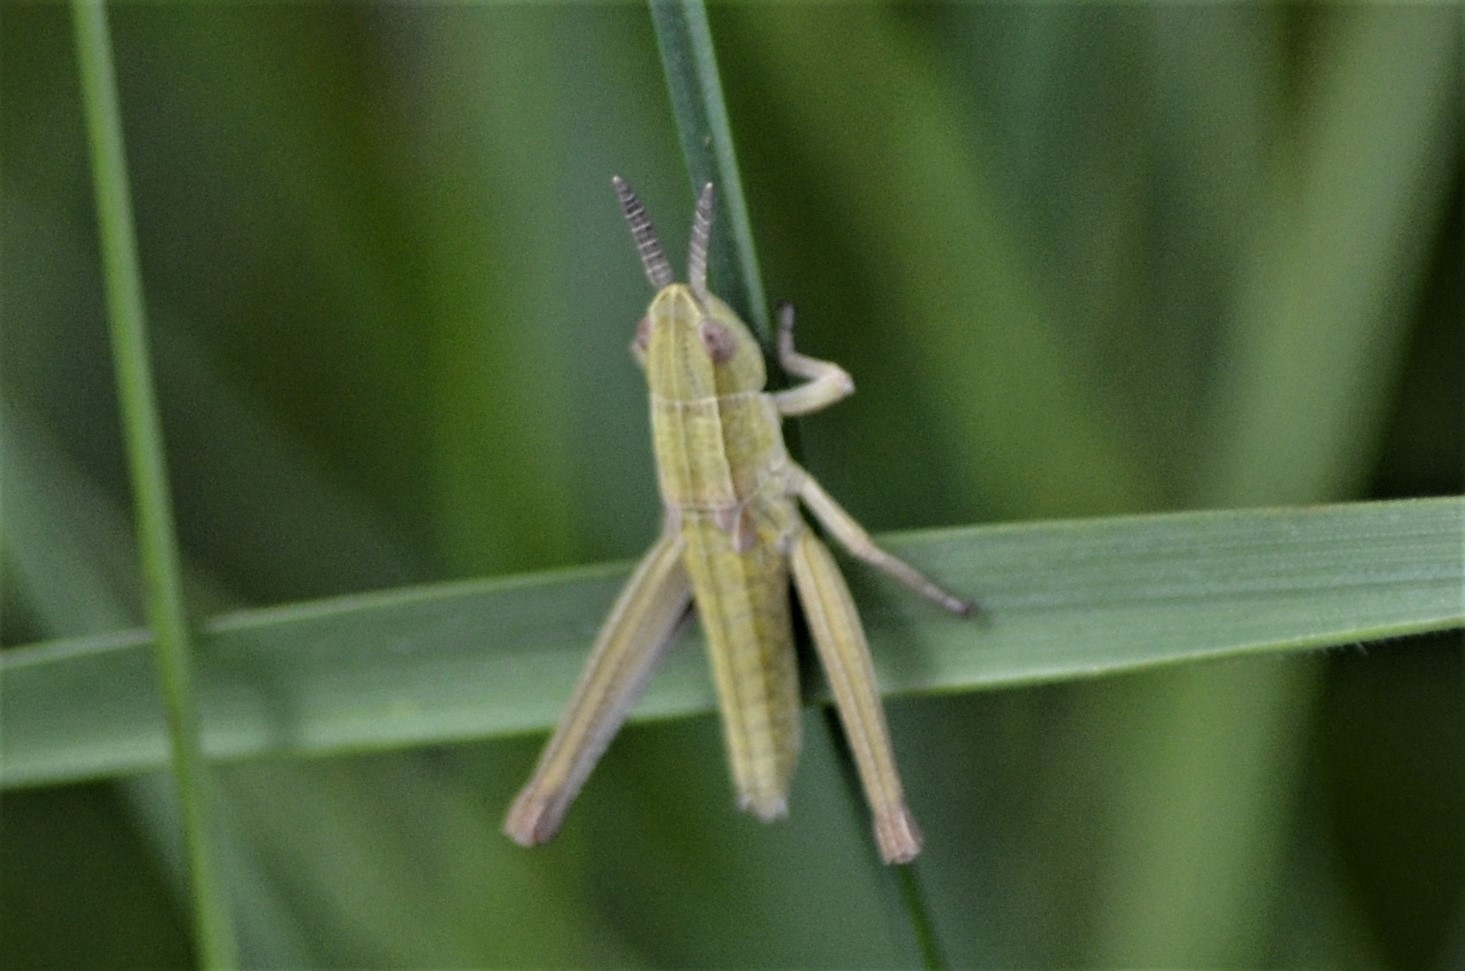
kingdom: Animalia
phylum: Arthropoda
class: Insecta
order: Orthoptera
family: Acrididae
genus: Euthystira
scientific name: Euthystira brachyptera
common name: Small gold grasshopper
